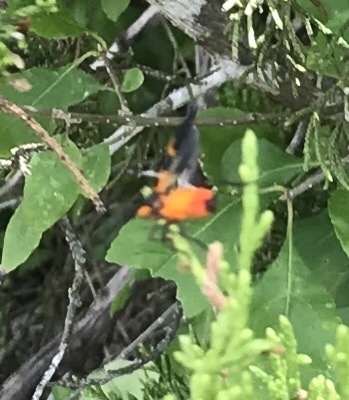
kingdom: Animalia
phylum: Arthropoda
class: Insecta
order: Hemiptera
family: Lygaeidae
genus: Oncopeltus
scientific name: Oncopeltus fasciatus
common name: Large milkweed bug
